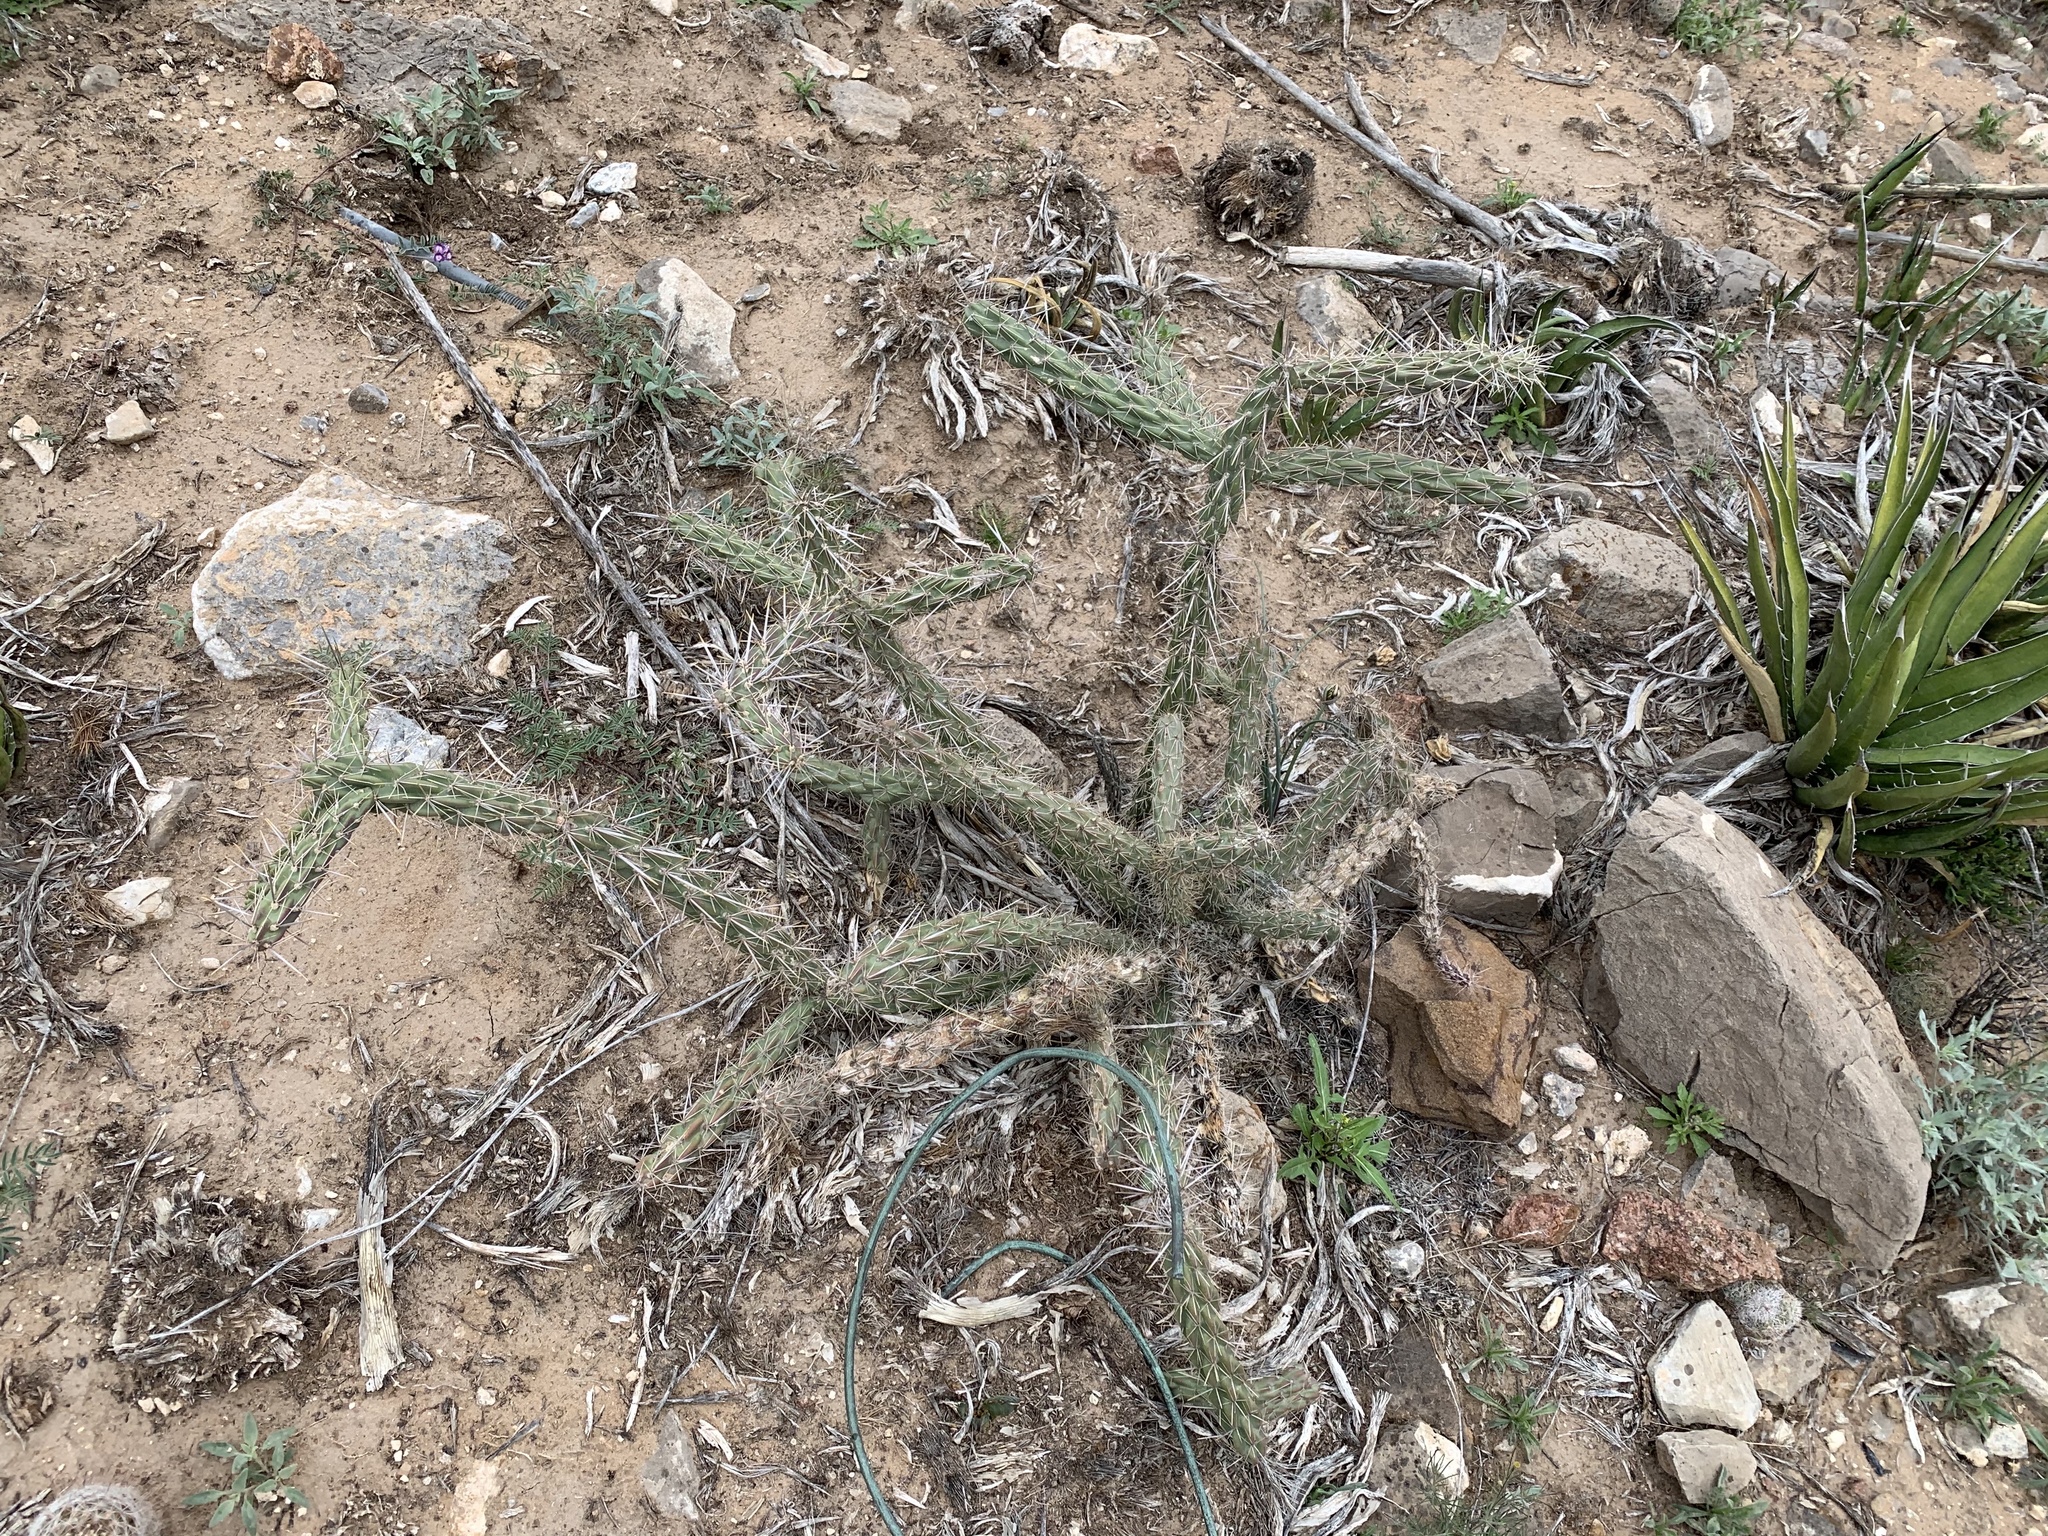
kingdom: Plantae
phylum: Tracheophyta
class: Magnoliopsida
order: Caryophyllales
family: Cactaceae
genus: Cylindropuntia
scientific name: Cylindropuntia imbricata
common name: Candelabrum cactus
